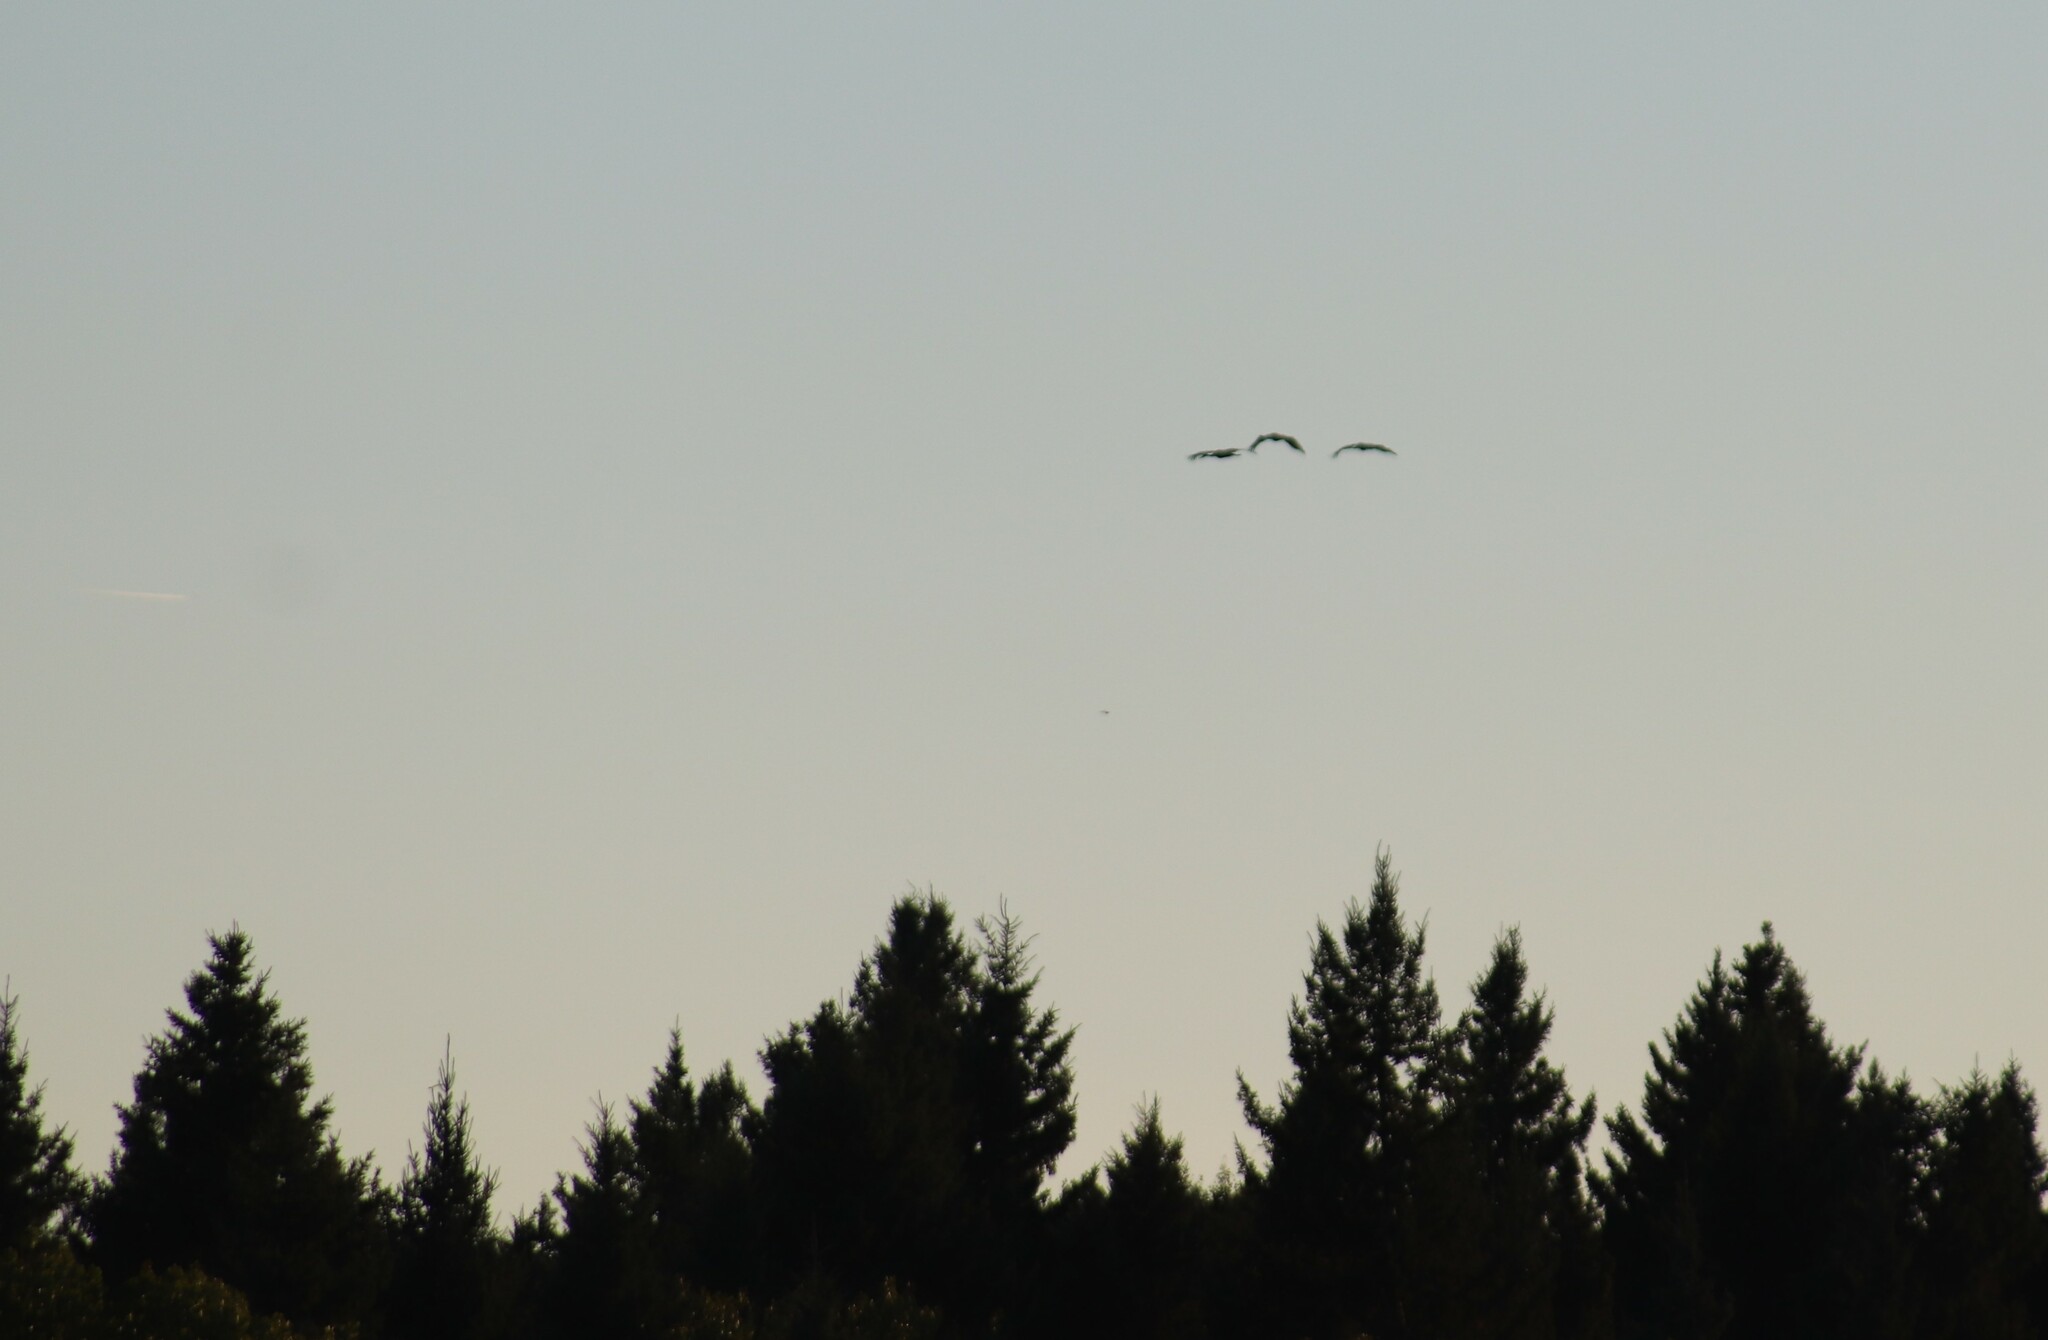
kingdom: Animalia
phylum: Chordata
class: Aves
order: Gruiformes
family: Gruidae
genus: Grus
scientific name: Grus canadensis
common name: Sandhill crane
